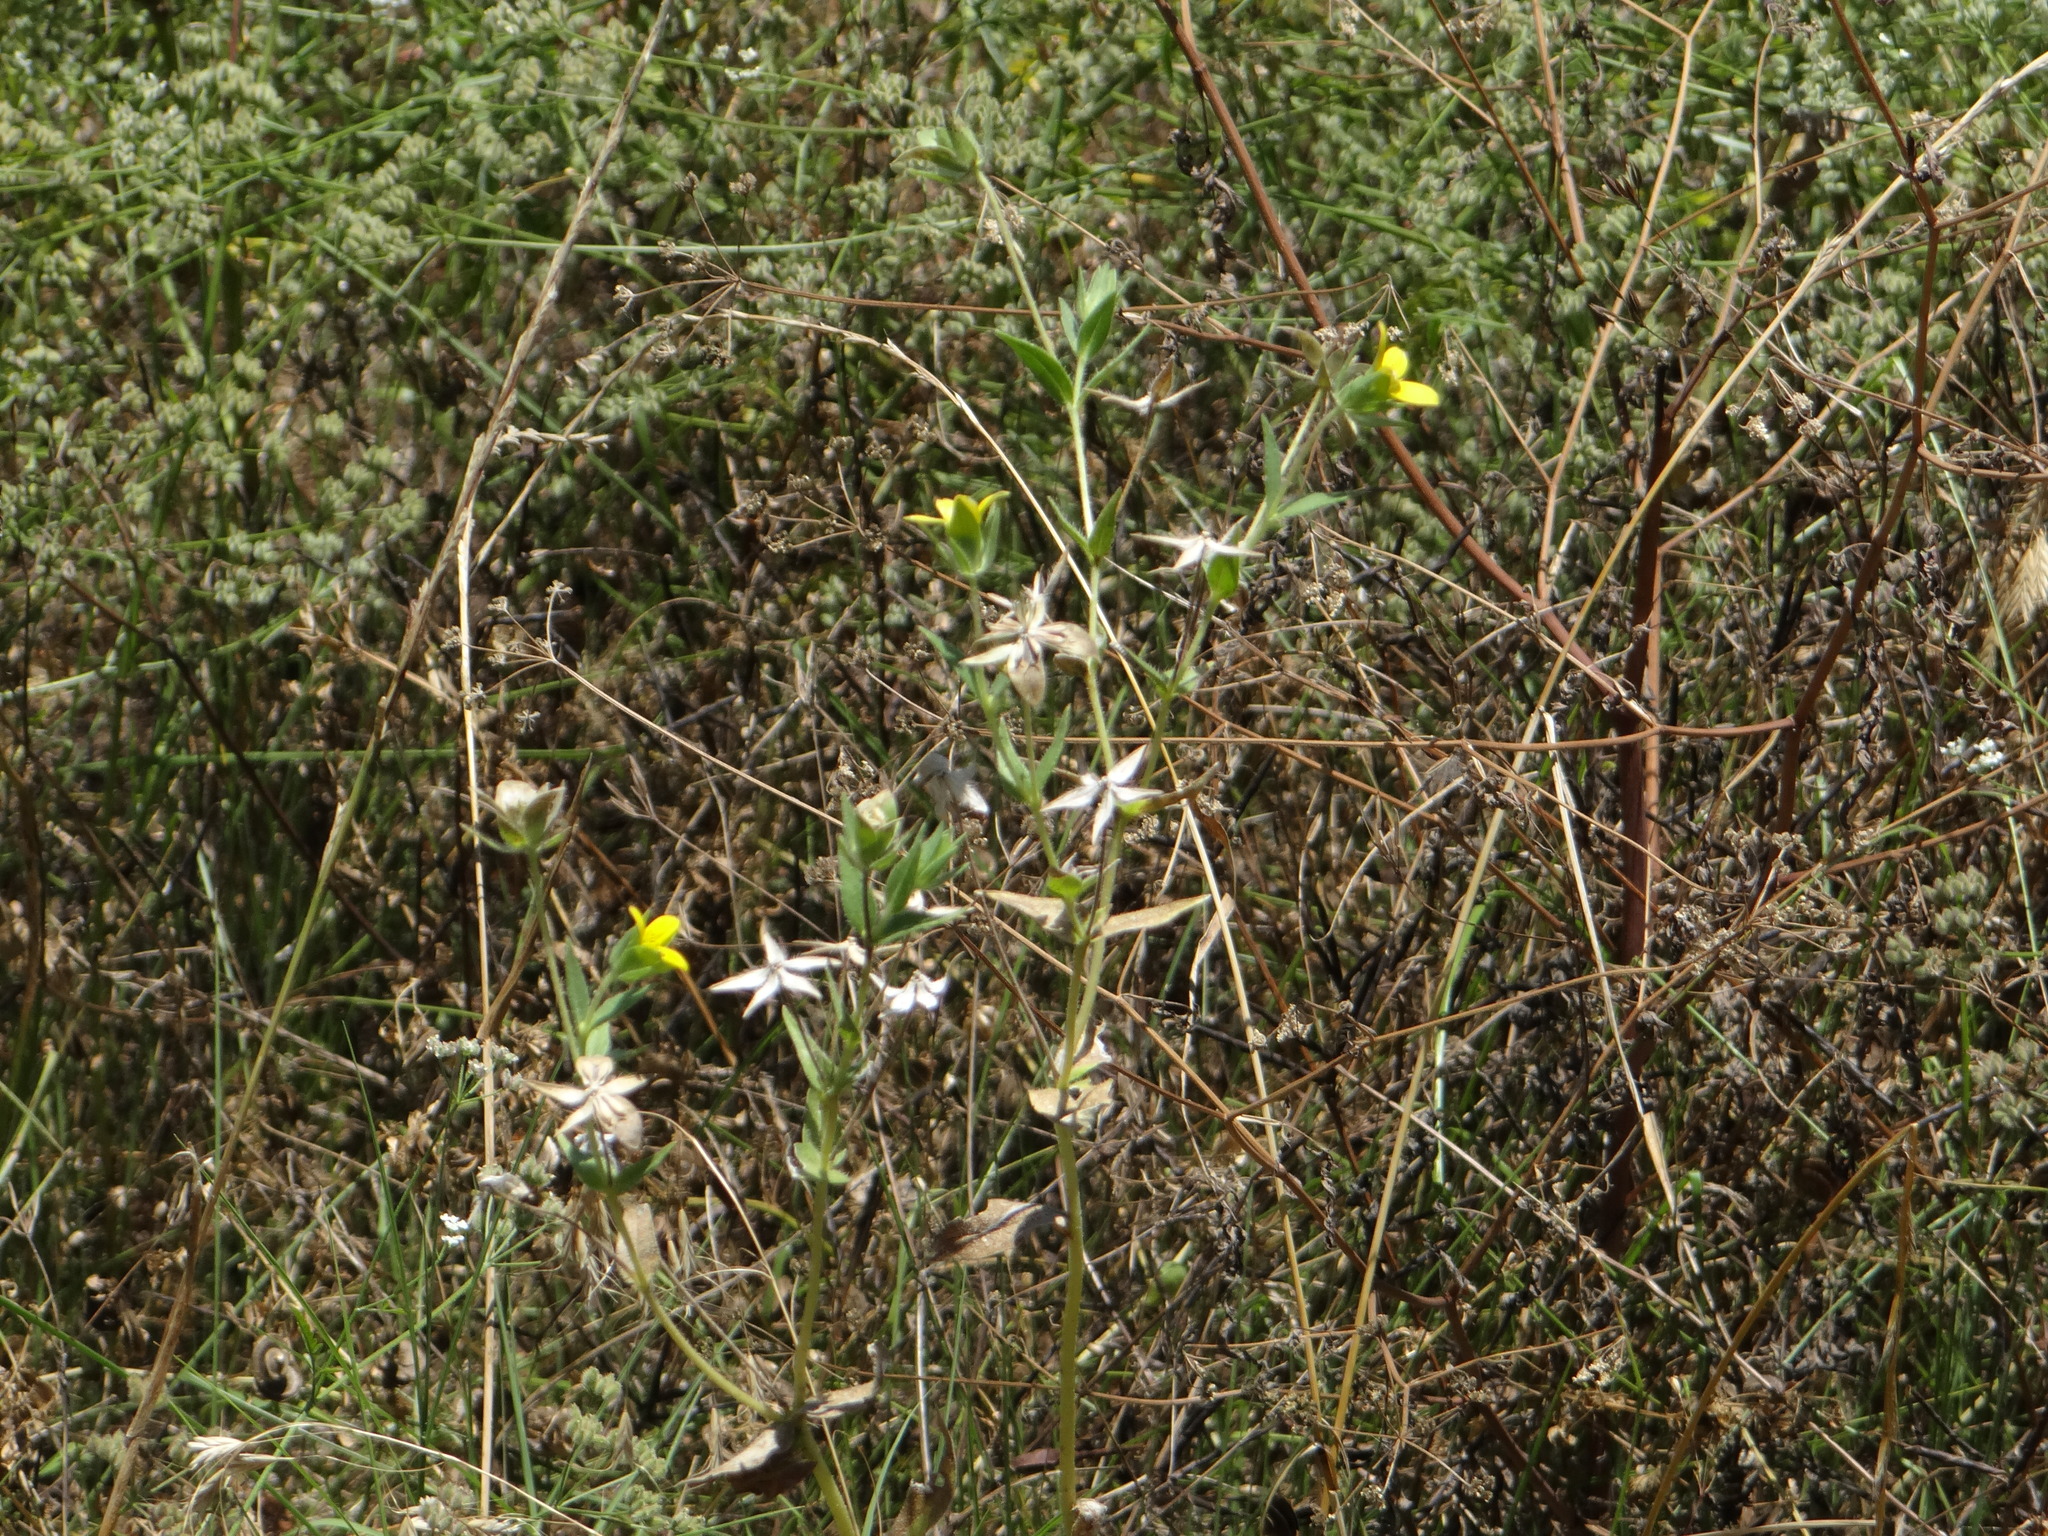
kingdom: Plantae
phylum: Tracheophyta
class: Magnoliopsida
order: Asterales
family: Asteraceae
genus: Lindheimera
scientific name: Lindheimera texana
